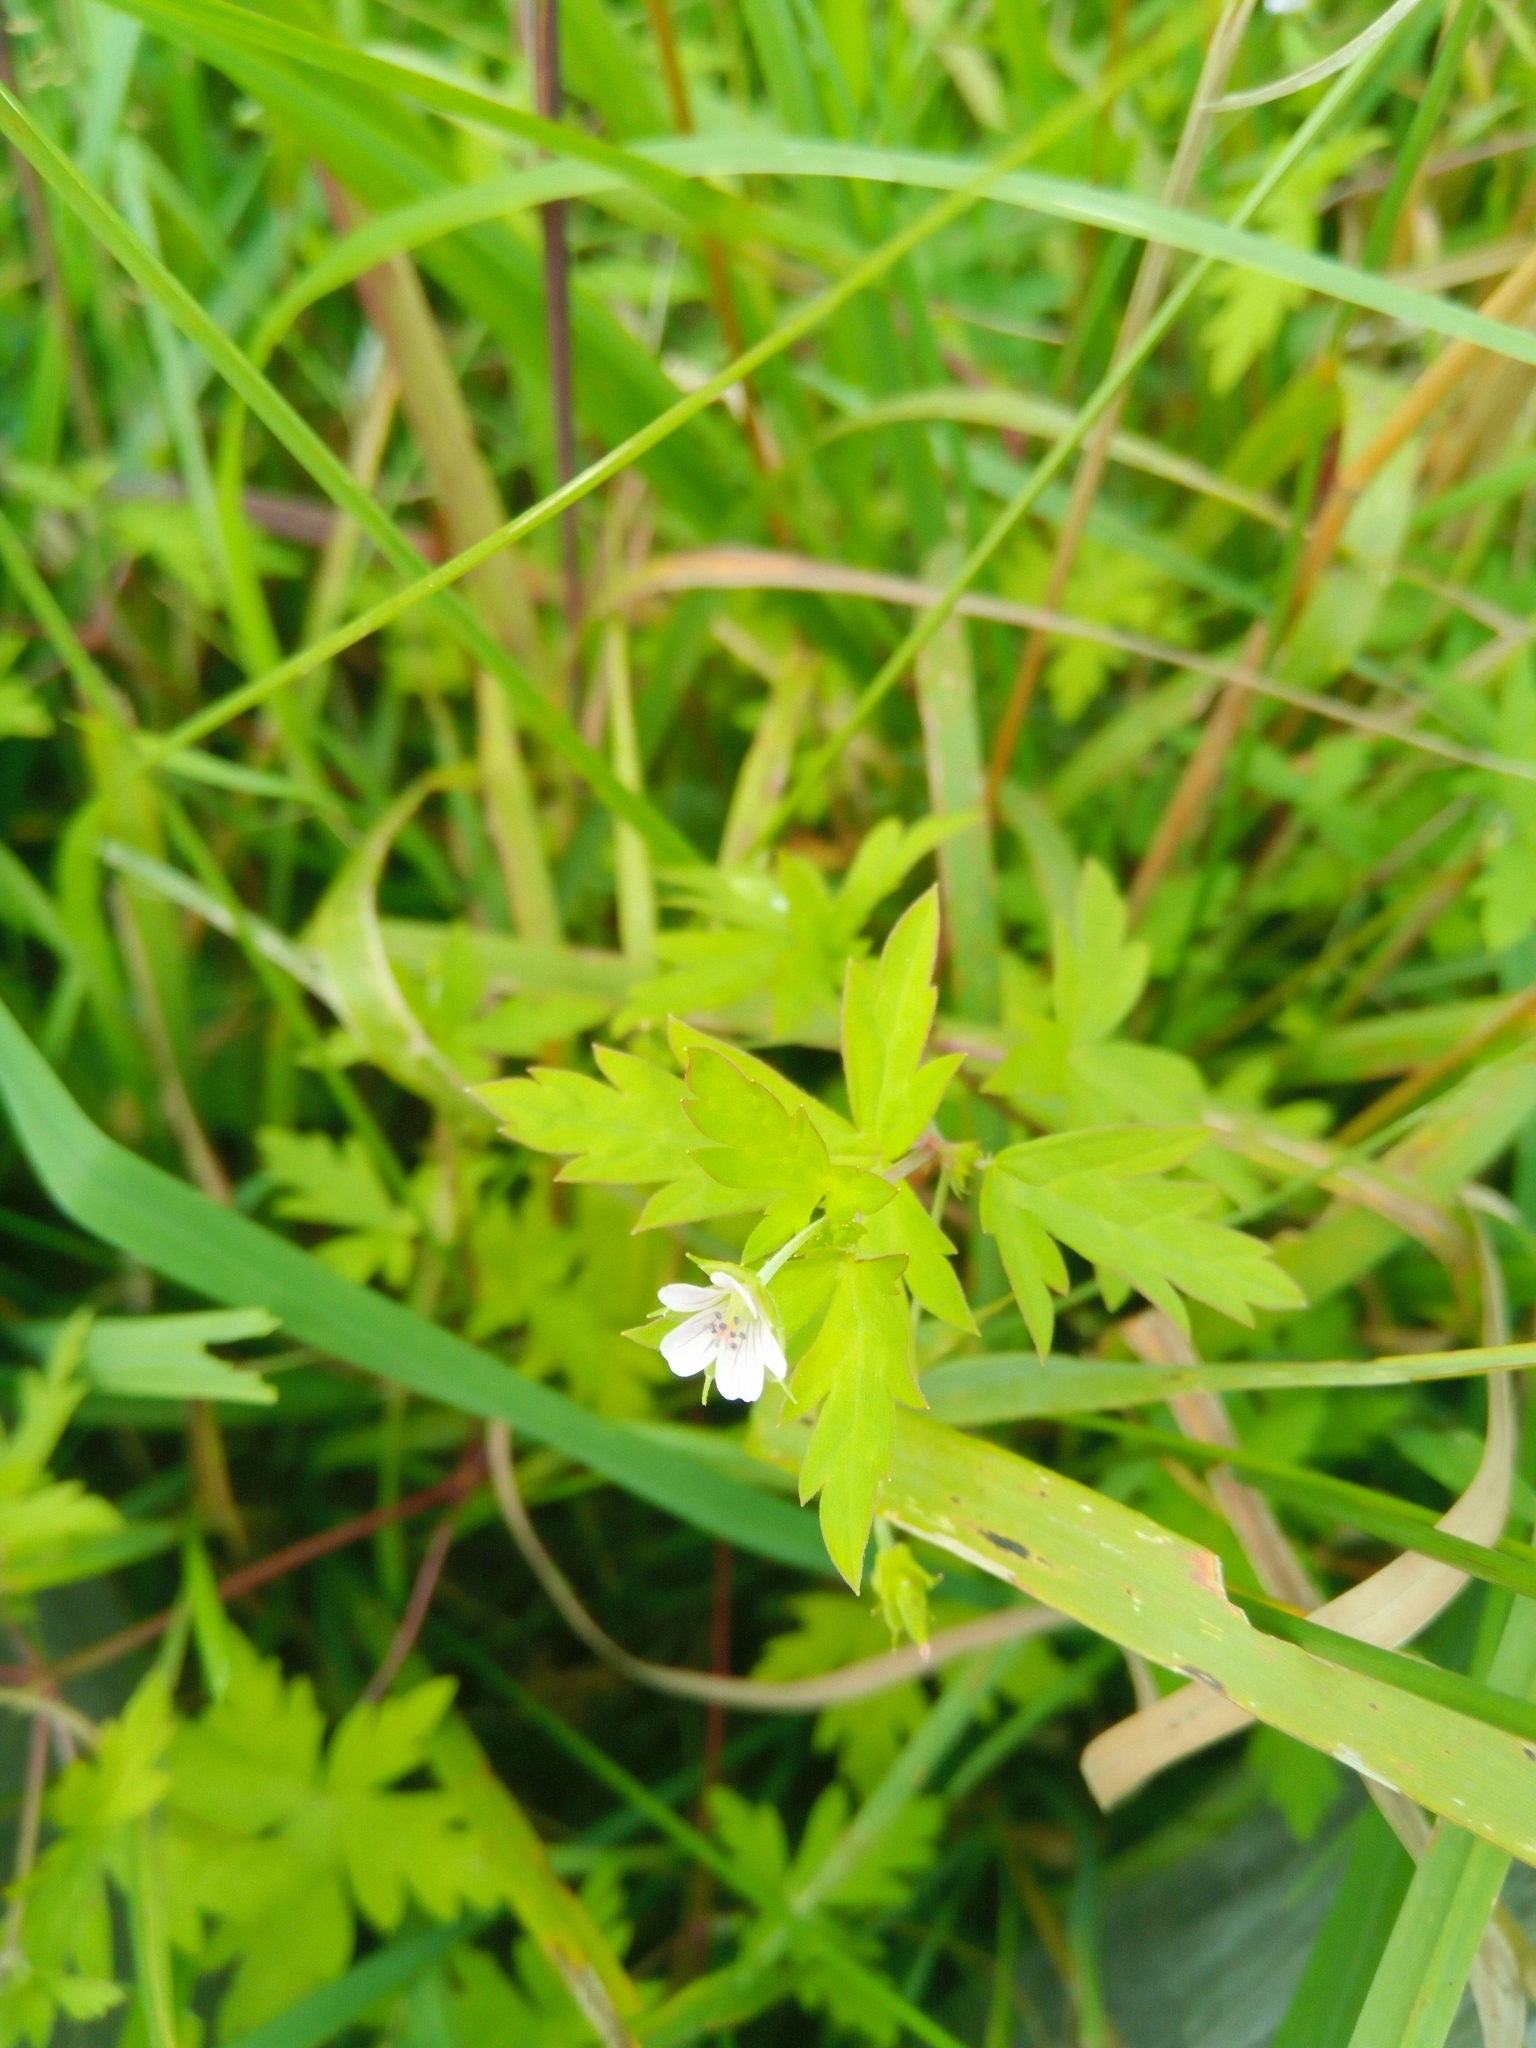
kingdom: Plantae
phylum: Tracheophyta
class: Magnoliopsida
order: Geraniales
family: Geraniaceae
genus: Geranium
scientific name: Geranium sibiricum
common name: Siberian crane's-bill
